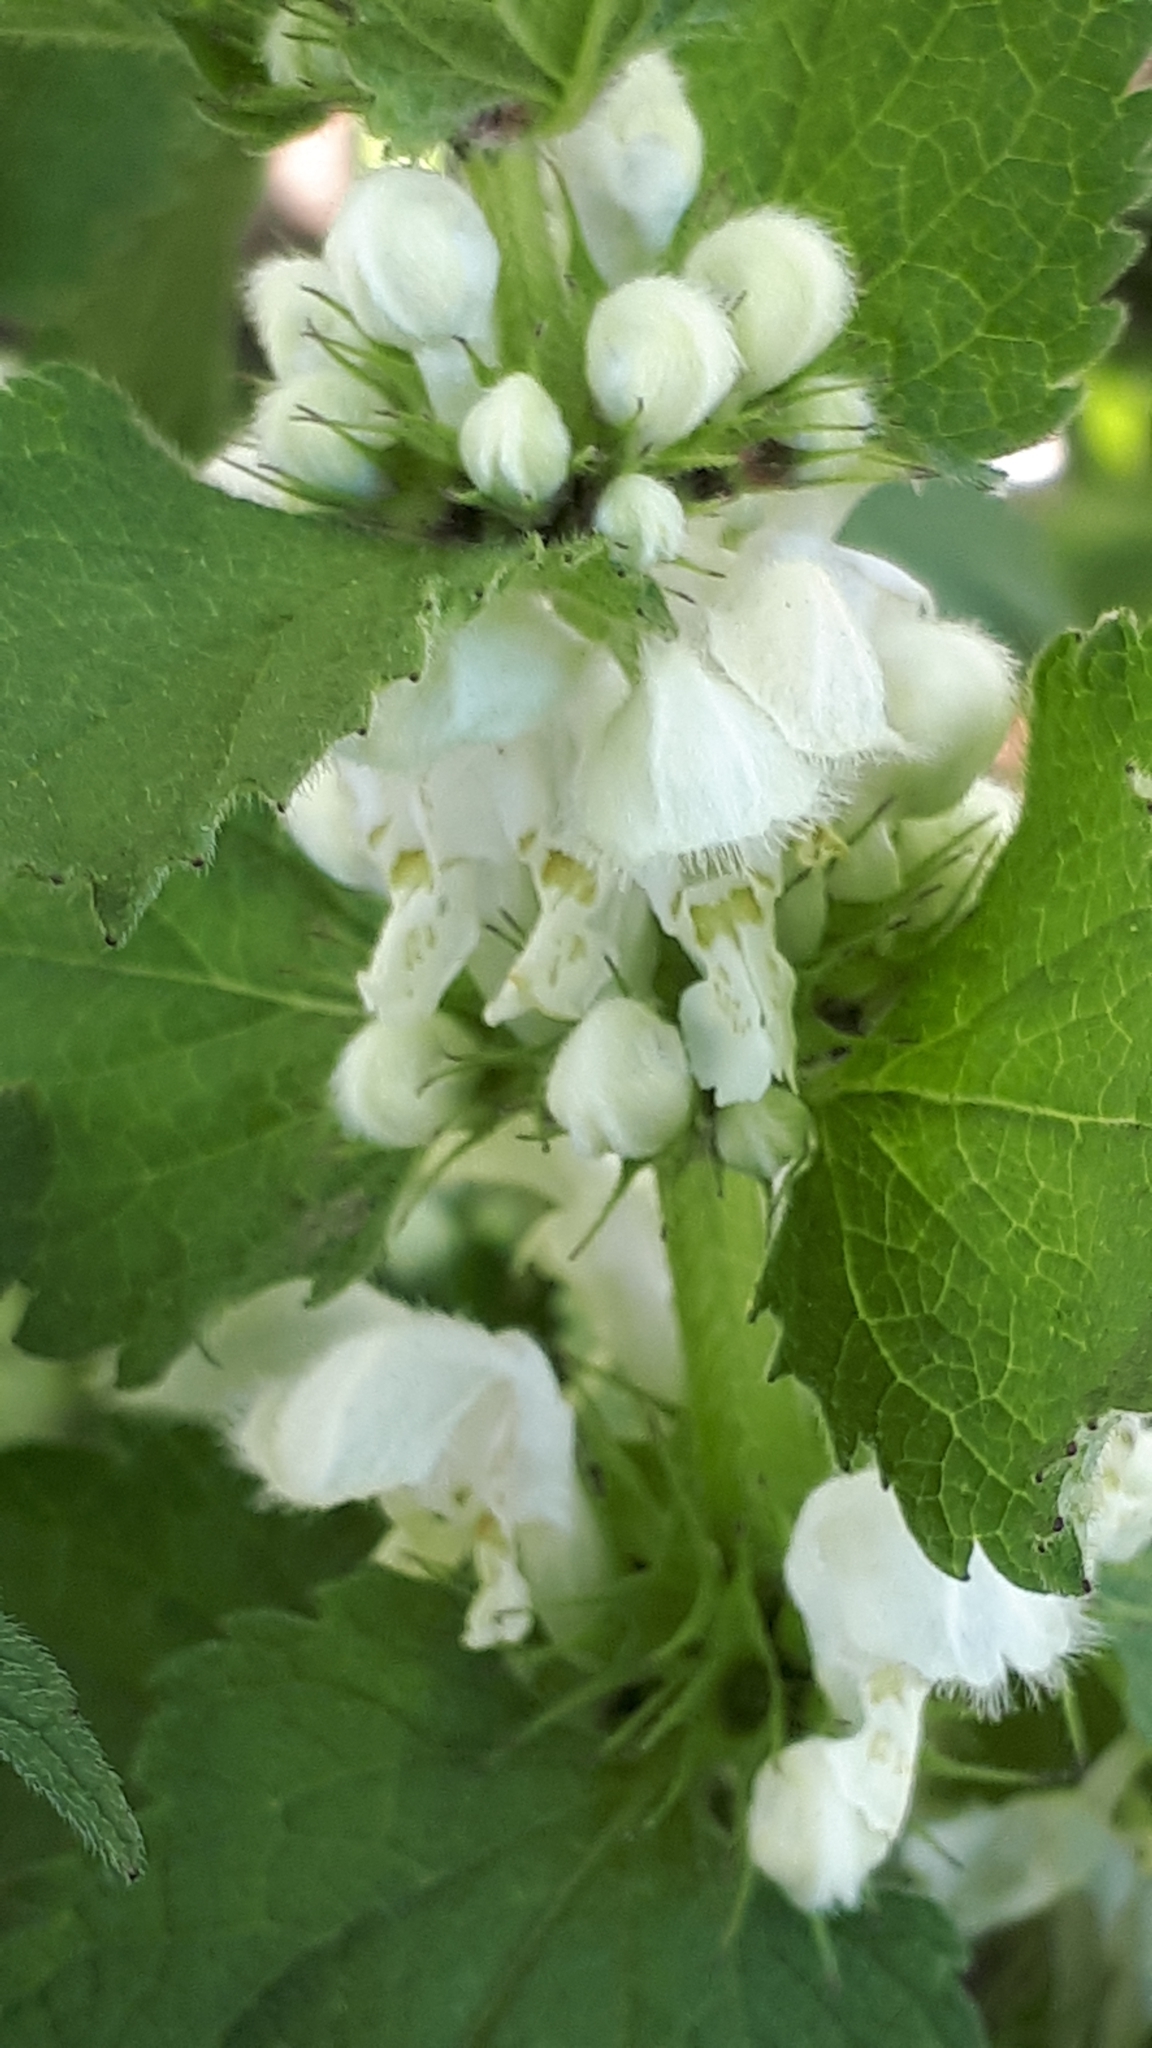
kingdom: Plantae
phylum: Tracheophyta
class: Magnoliopsida
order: Lamiales
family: Lamiaceae
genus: Lamium
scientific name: Lamium album
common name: White dead-nettle
